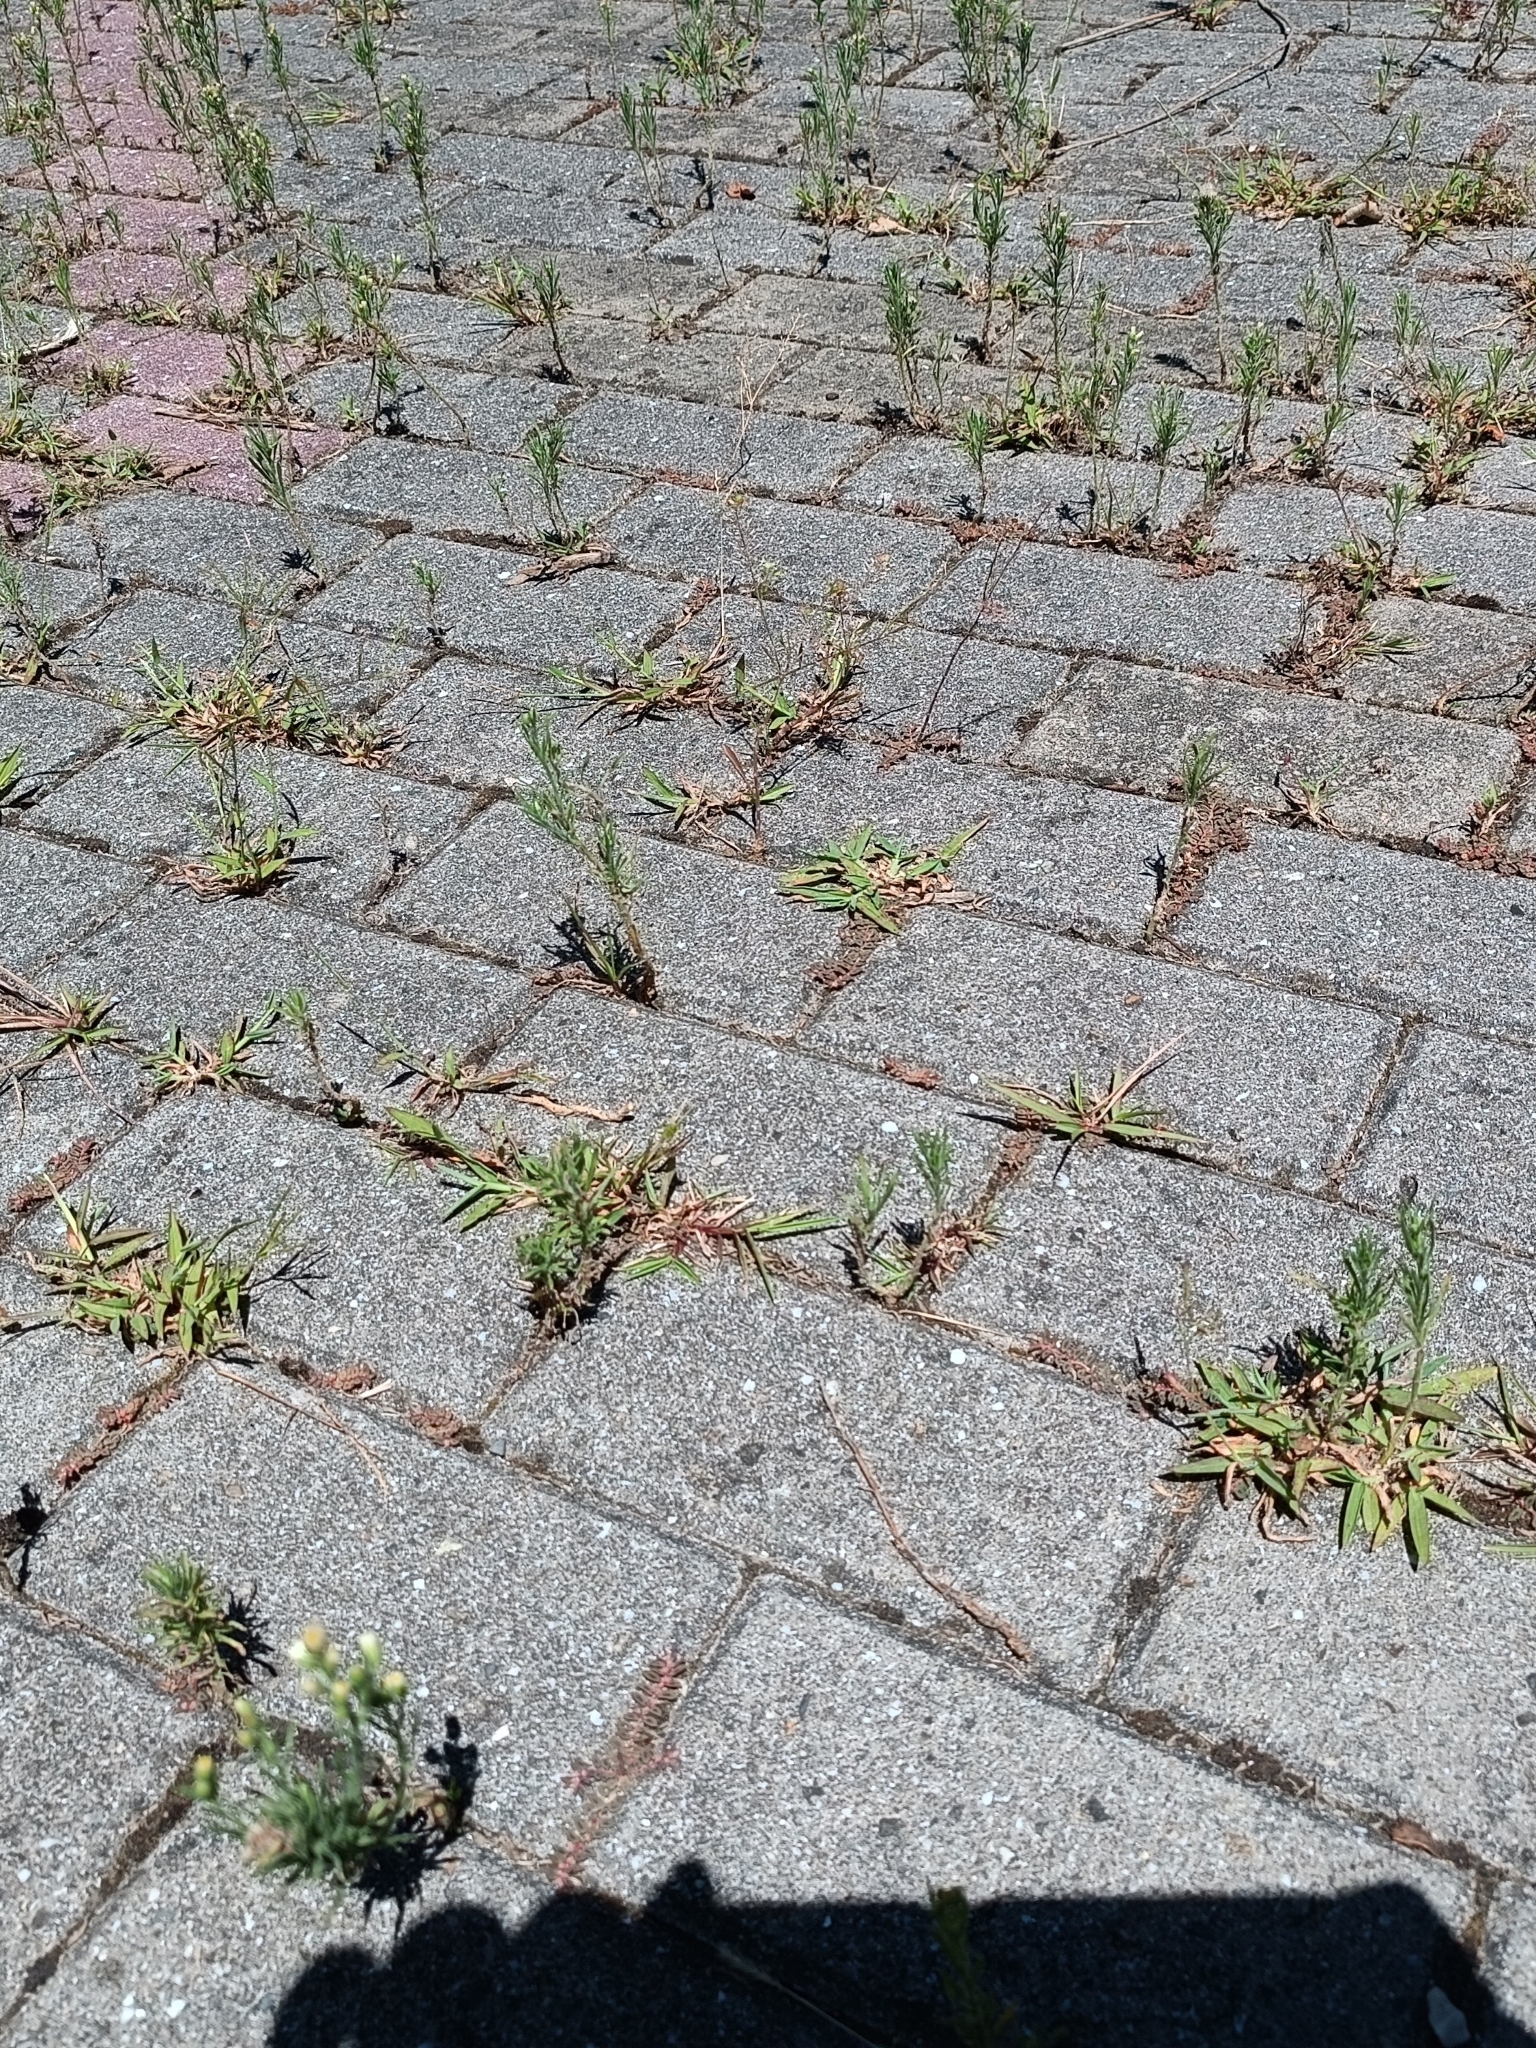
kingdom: Plantae
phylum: Tracheophyta
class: Magnoliopsida
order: Asterales
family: Asteraceae
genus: Erigeron
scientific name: Erigeron bonariensis
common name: Argentine fleabane
